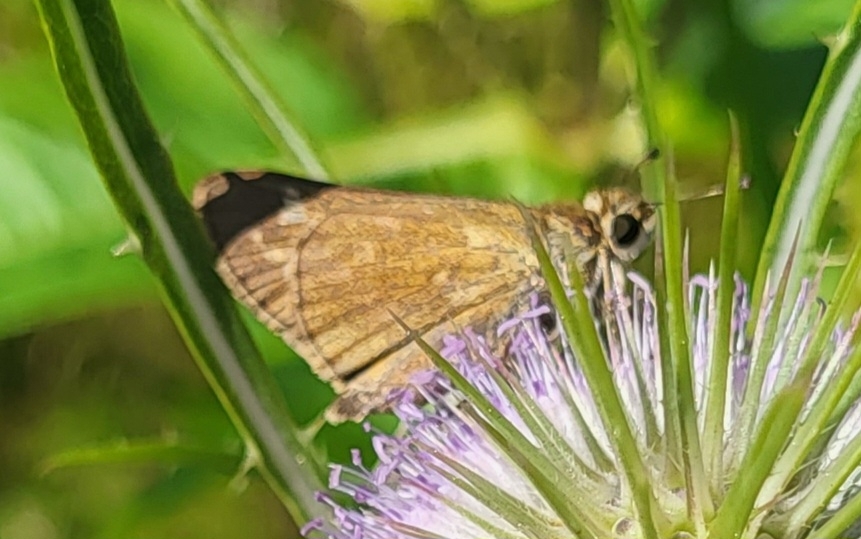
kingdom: Animalia
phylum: Arthropoda
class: Insecta
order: Lepidoptera
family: Hesperiidae
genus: Atalopedes
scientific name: Atalopedes
